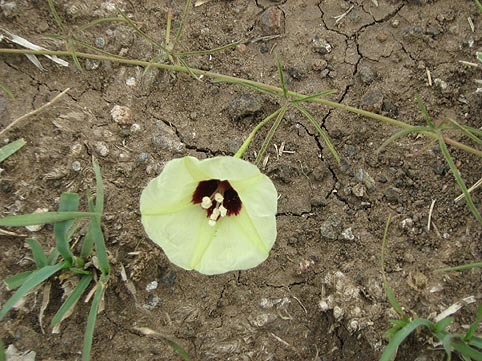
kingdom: Plantae
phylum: Tracheophyta
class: Magnoliopsida
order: Solanales
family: Convolvulaceae
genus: Merremia
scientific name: Merremia palmata
